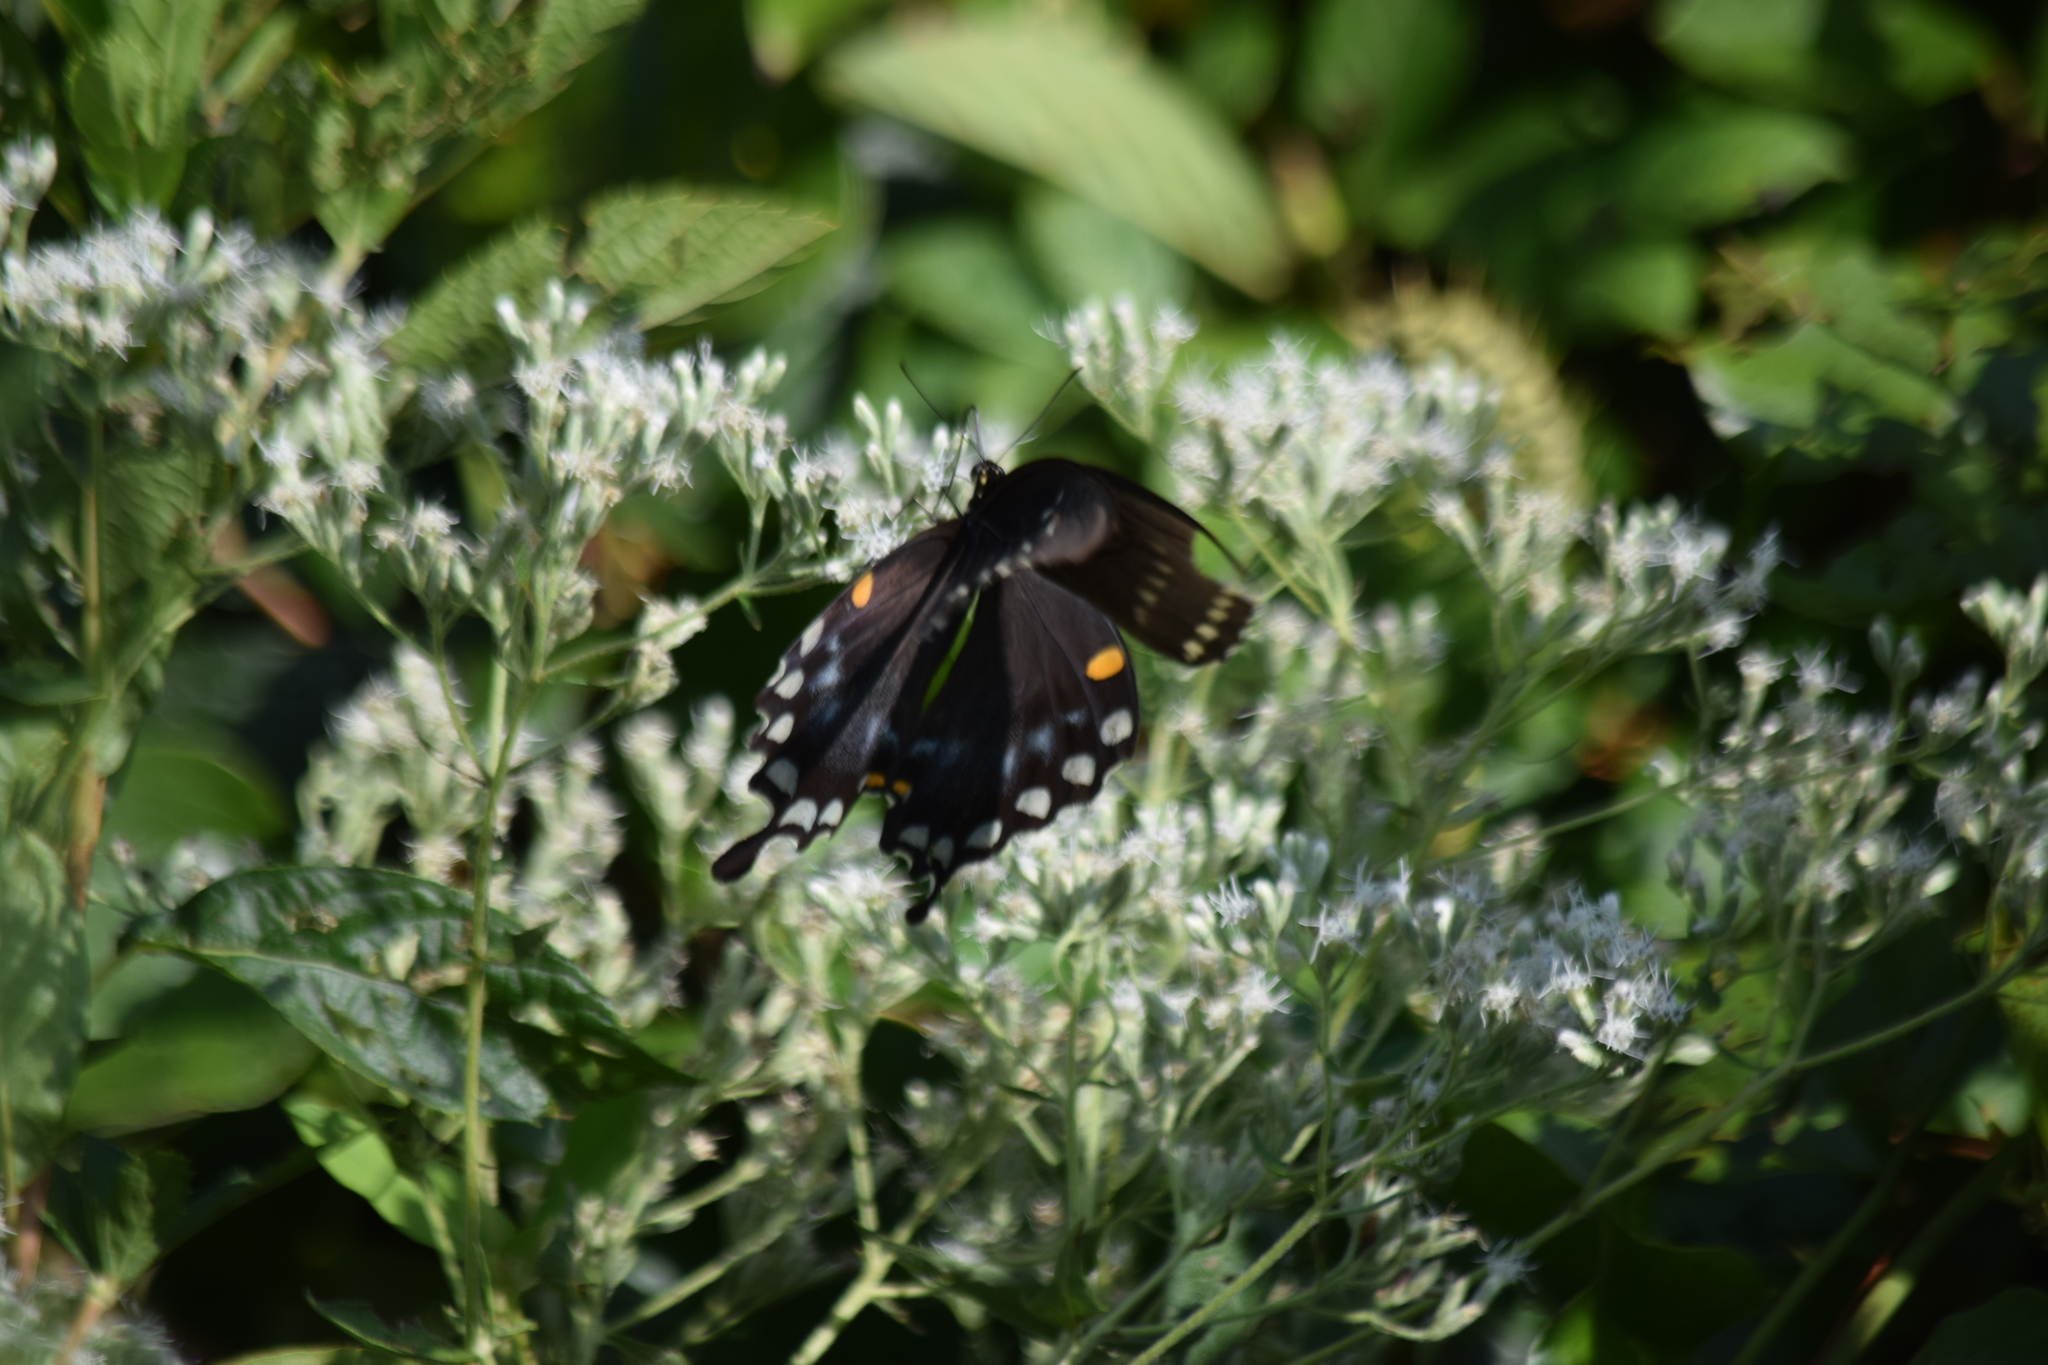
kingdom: Animalia
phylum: Arthropoda
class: Insecta
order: Lepidoptera
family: Papilionidae
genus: Papilio
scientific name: Papilio troilus
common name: Spicebush swallowtail
